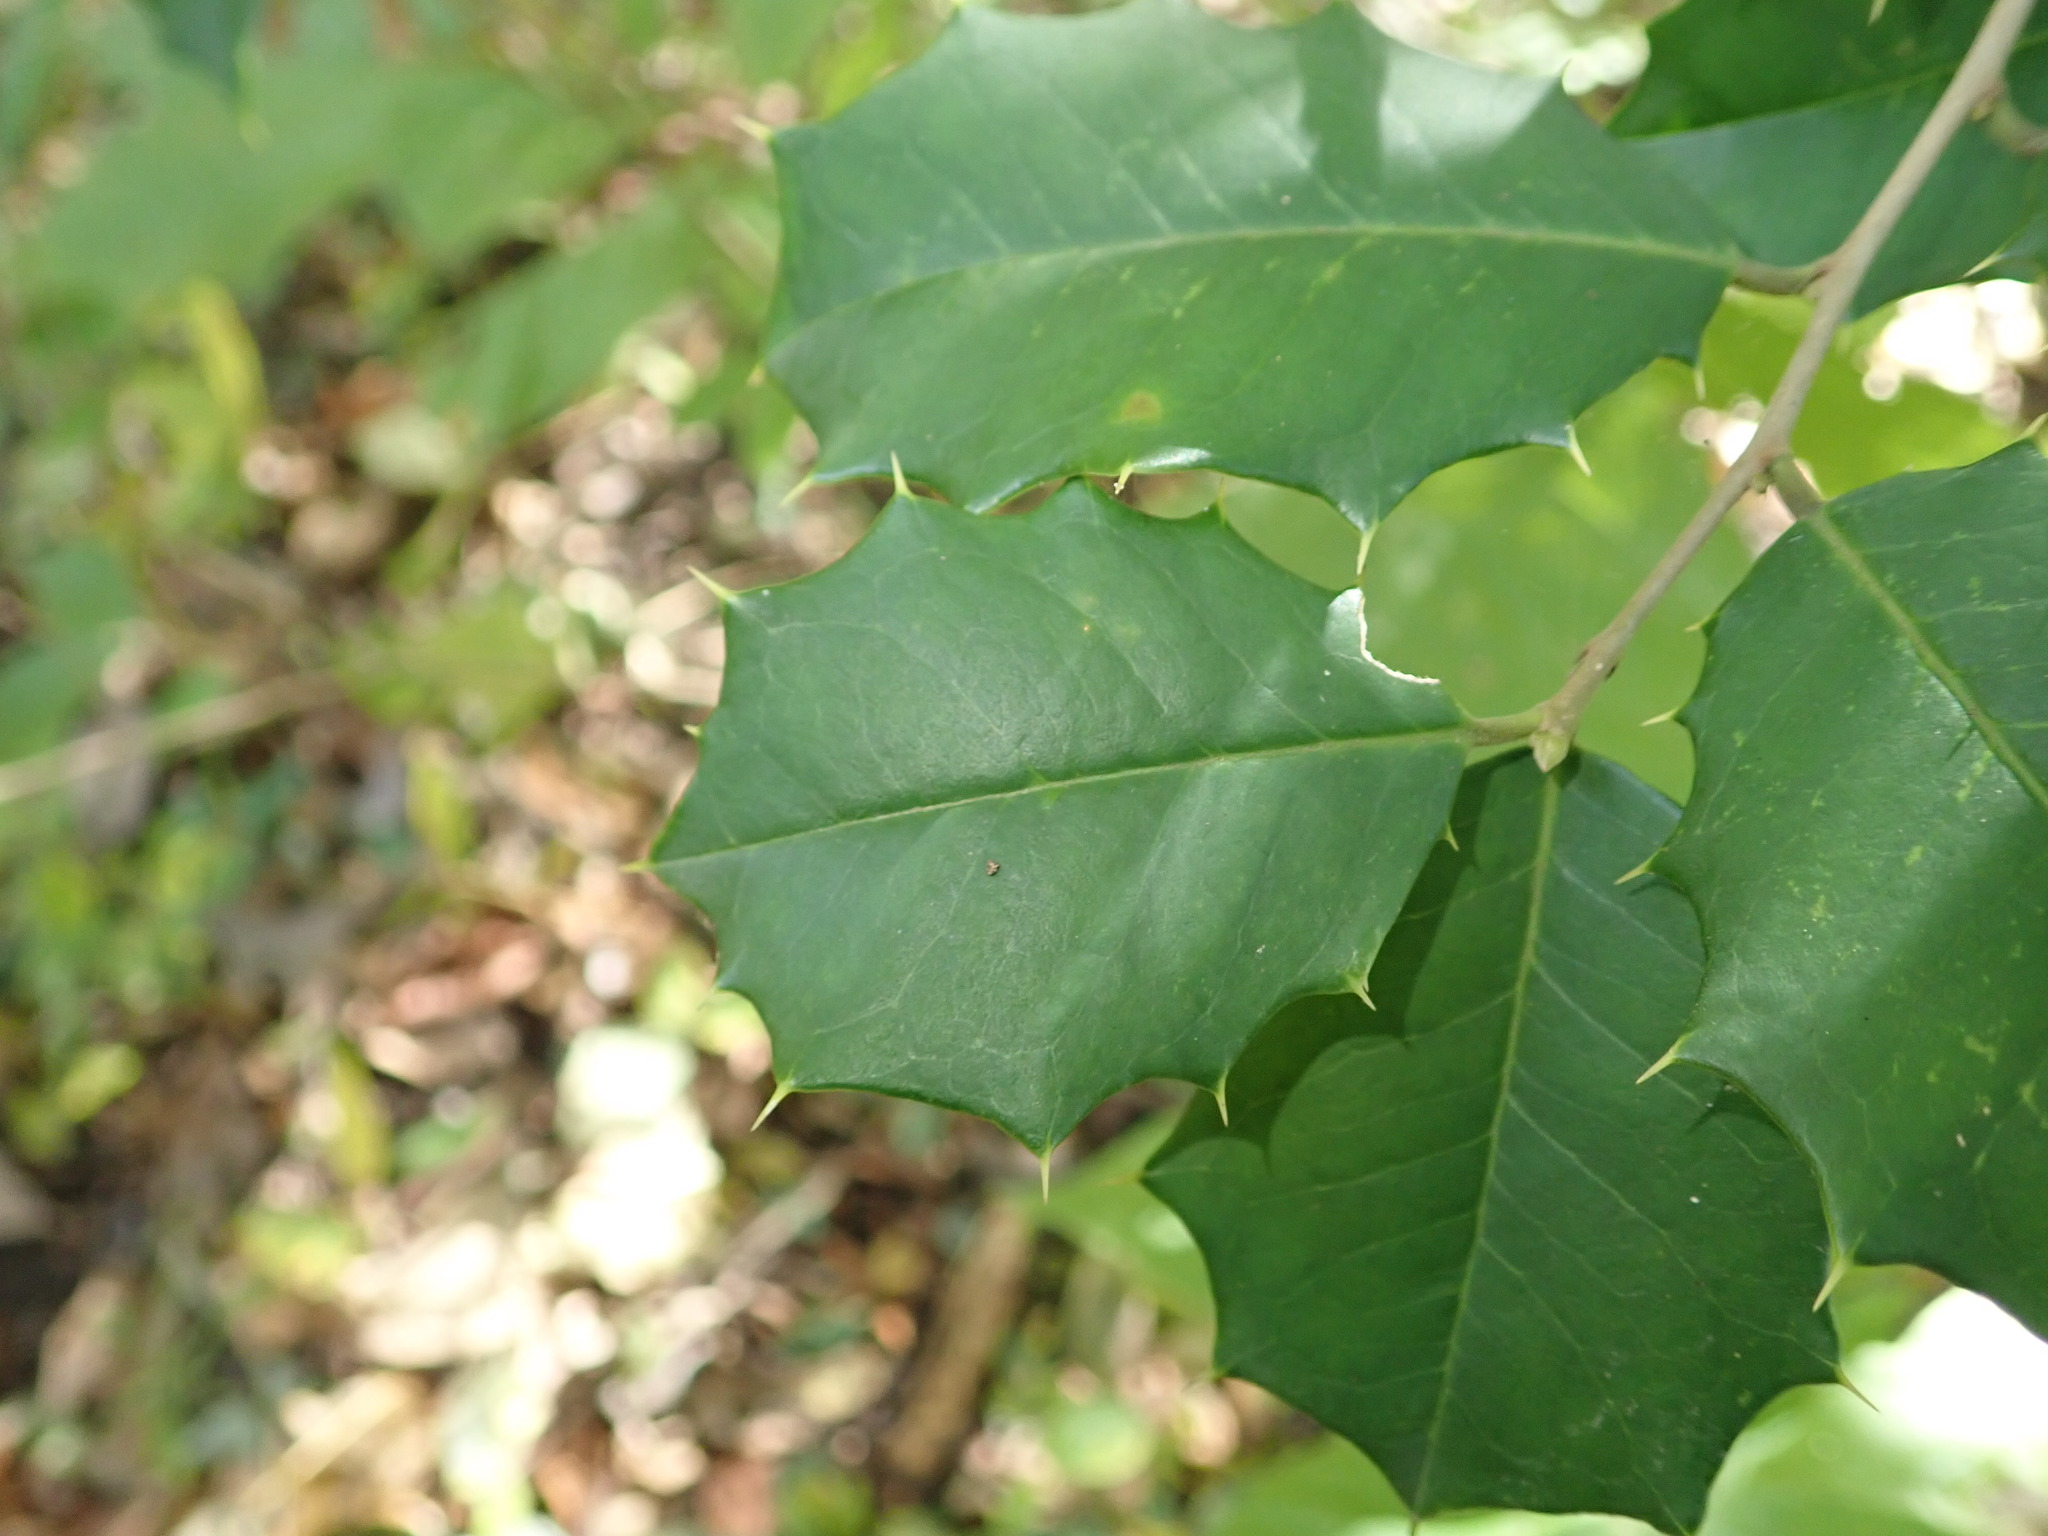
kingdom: Plantae
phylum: Tracheophyta
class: Magnoliopsida
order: Aquifoliales
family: Aquifoliaceae
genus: Ilex
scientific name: Ilex opaca
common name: American holly
